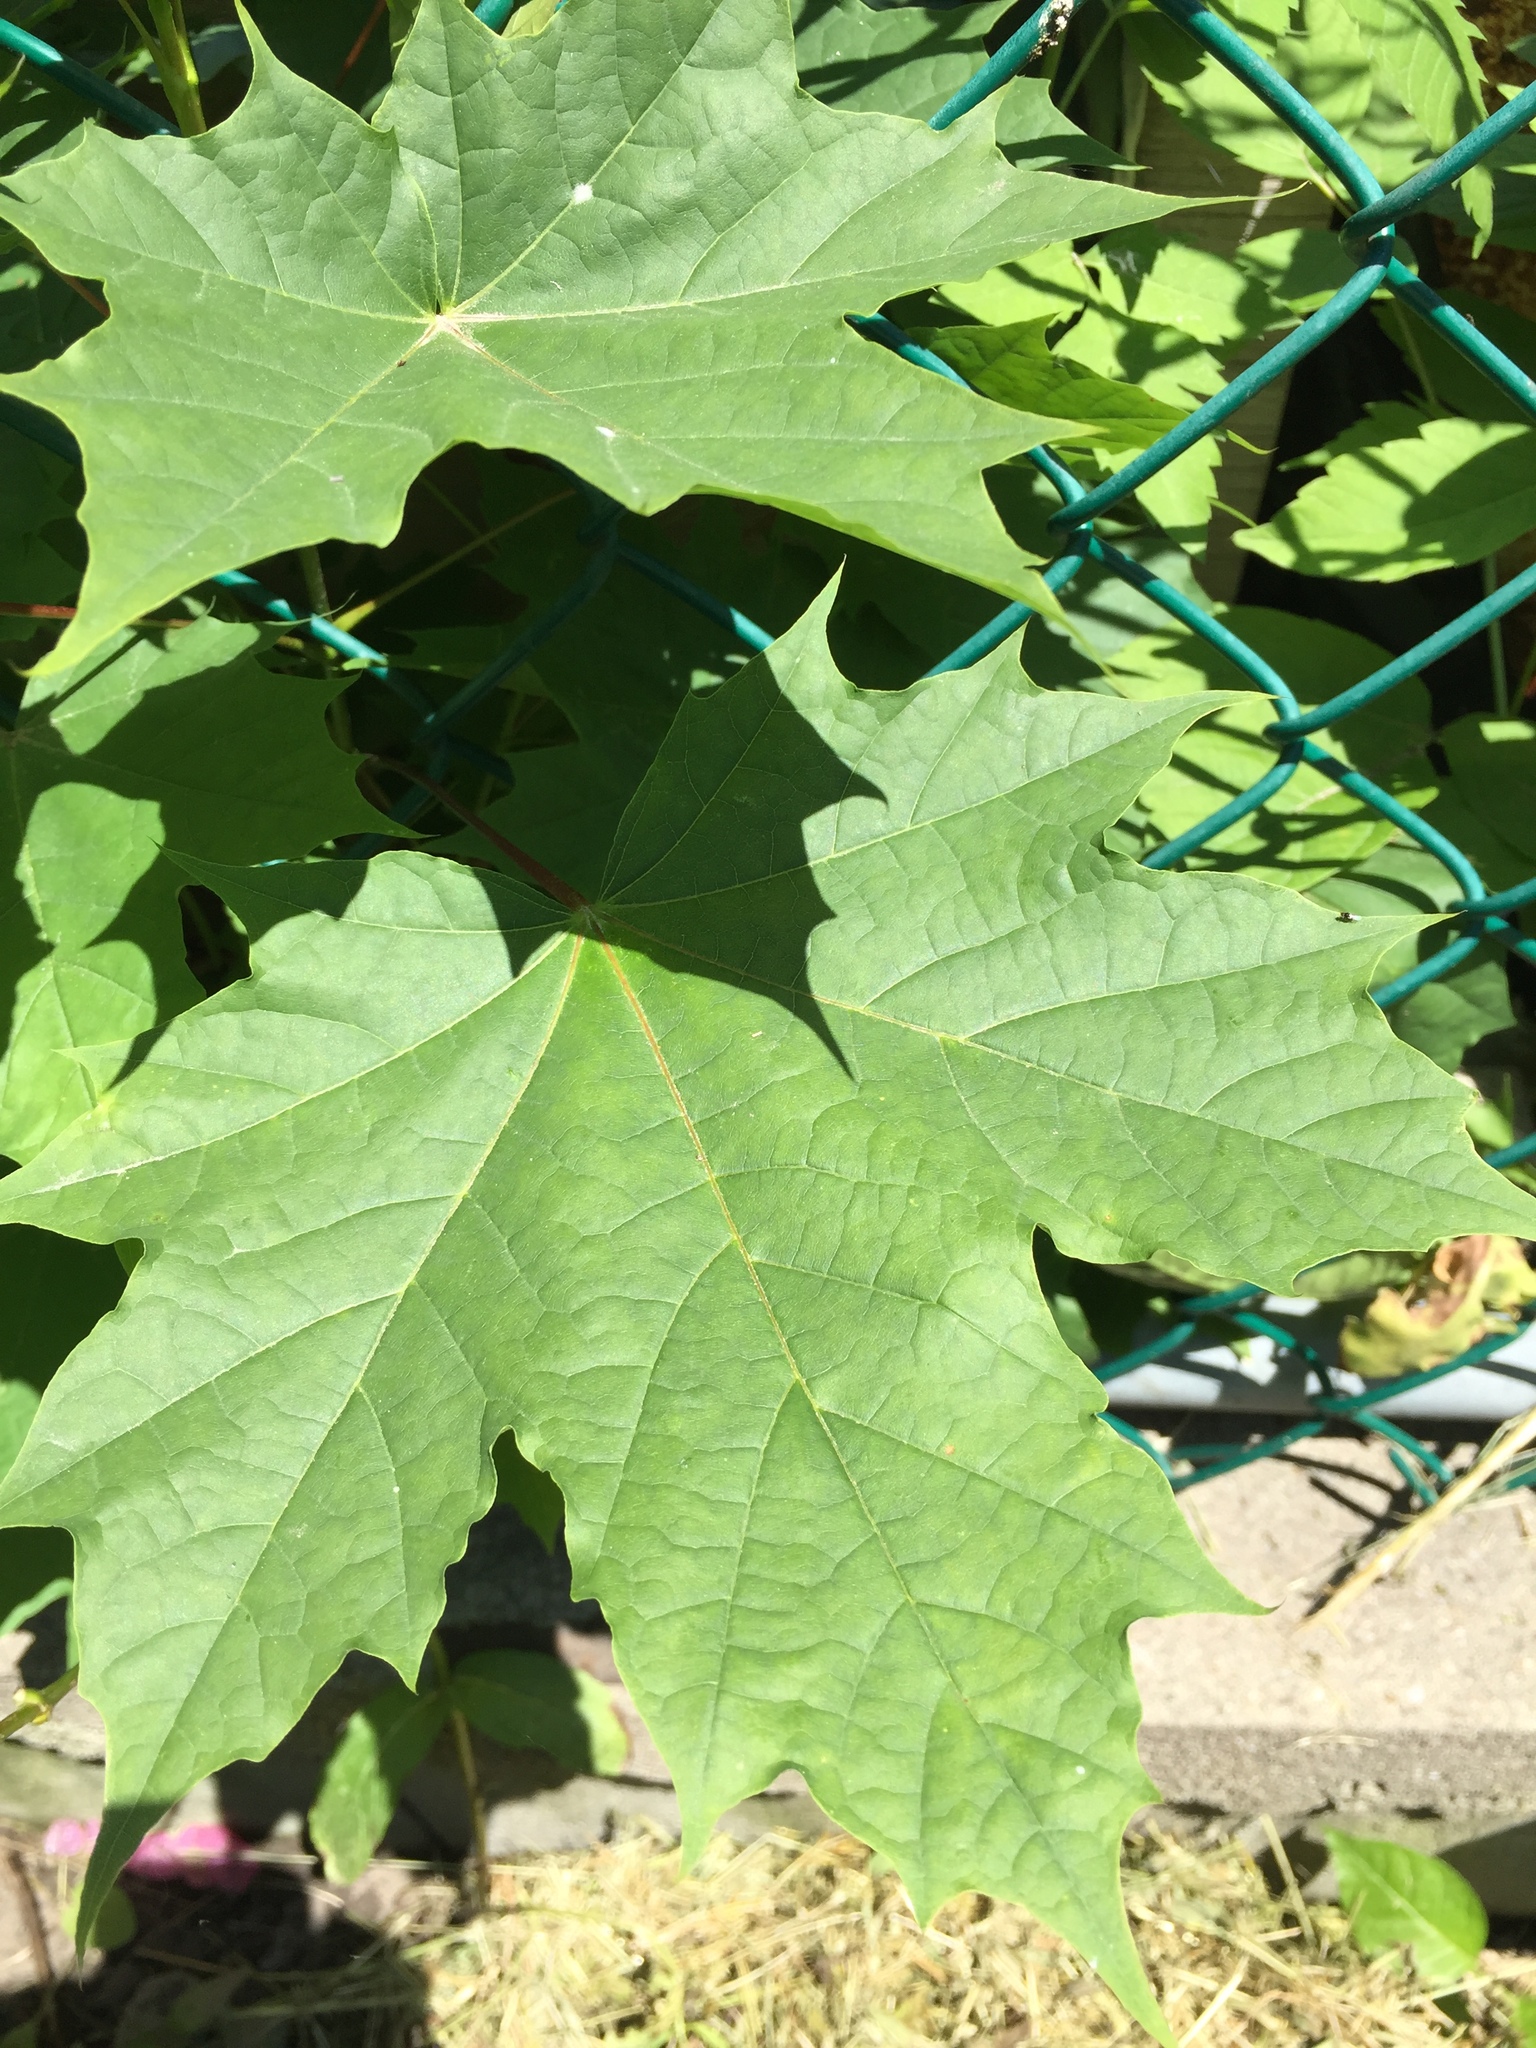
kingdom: Plantae
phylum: Tracheophyta
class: Magnoliopsida
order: Sapindales
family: Sapindaceae
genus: Acer
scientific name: Acer platanoides
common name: Norway maple
